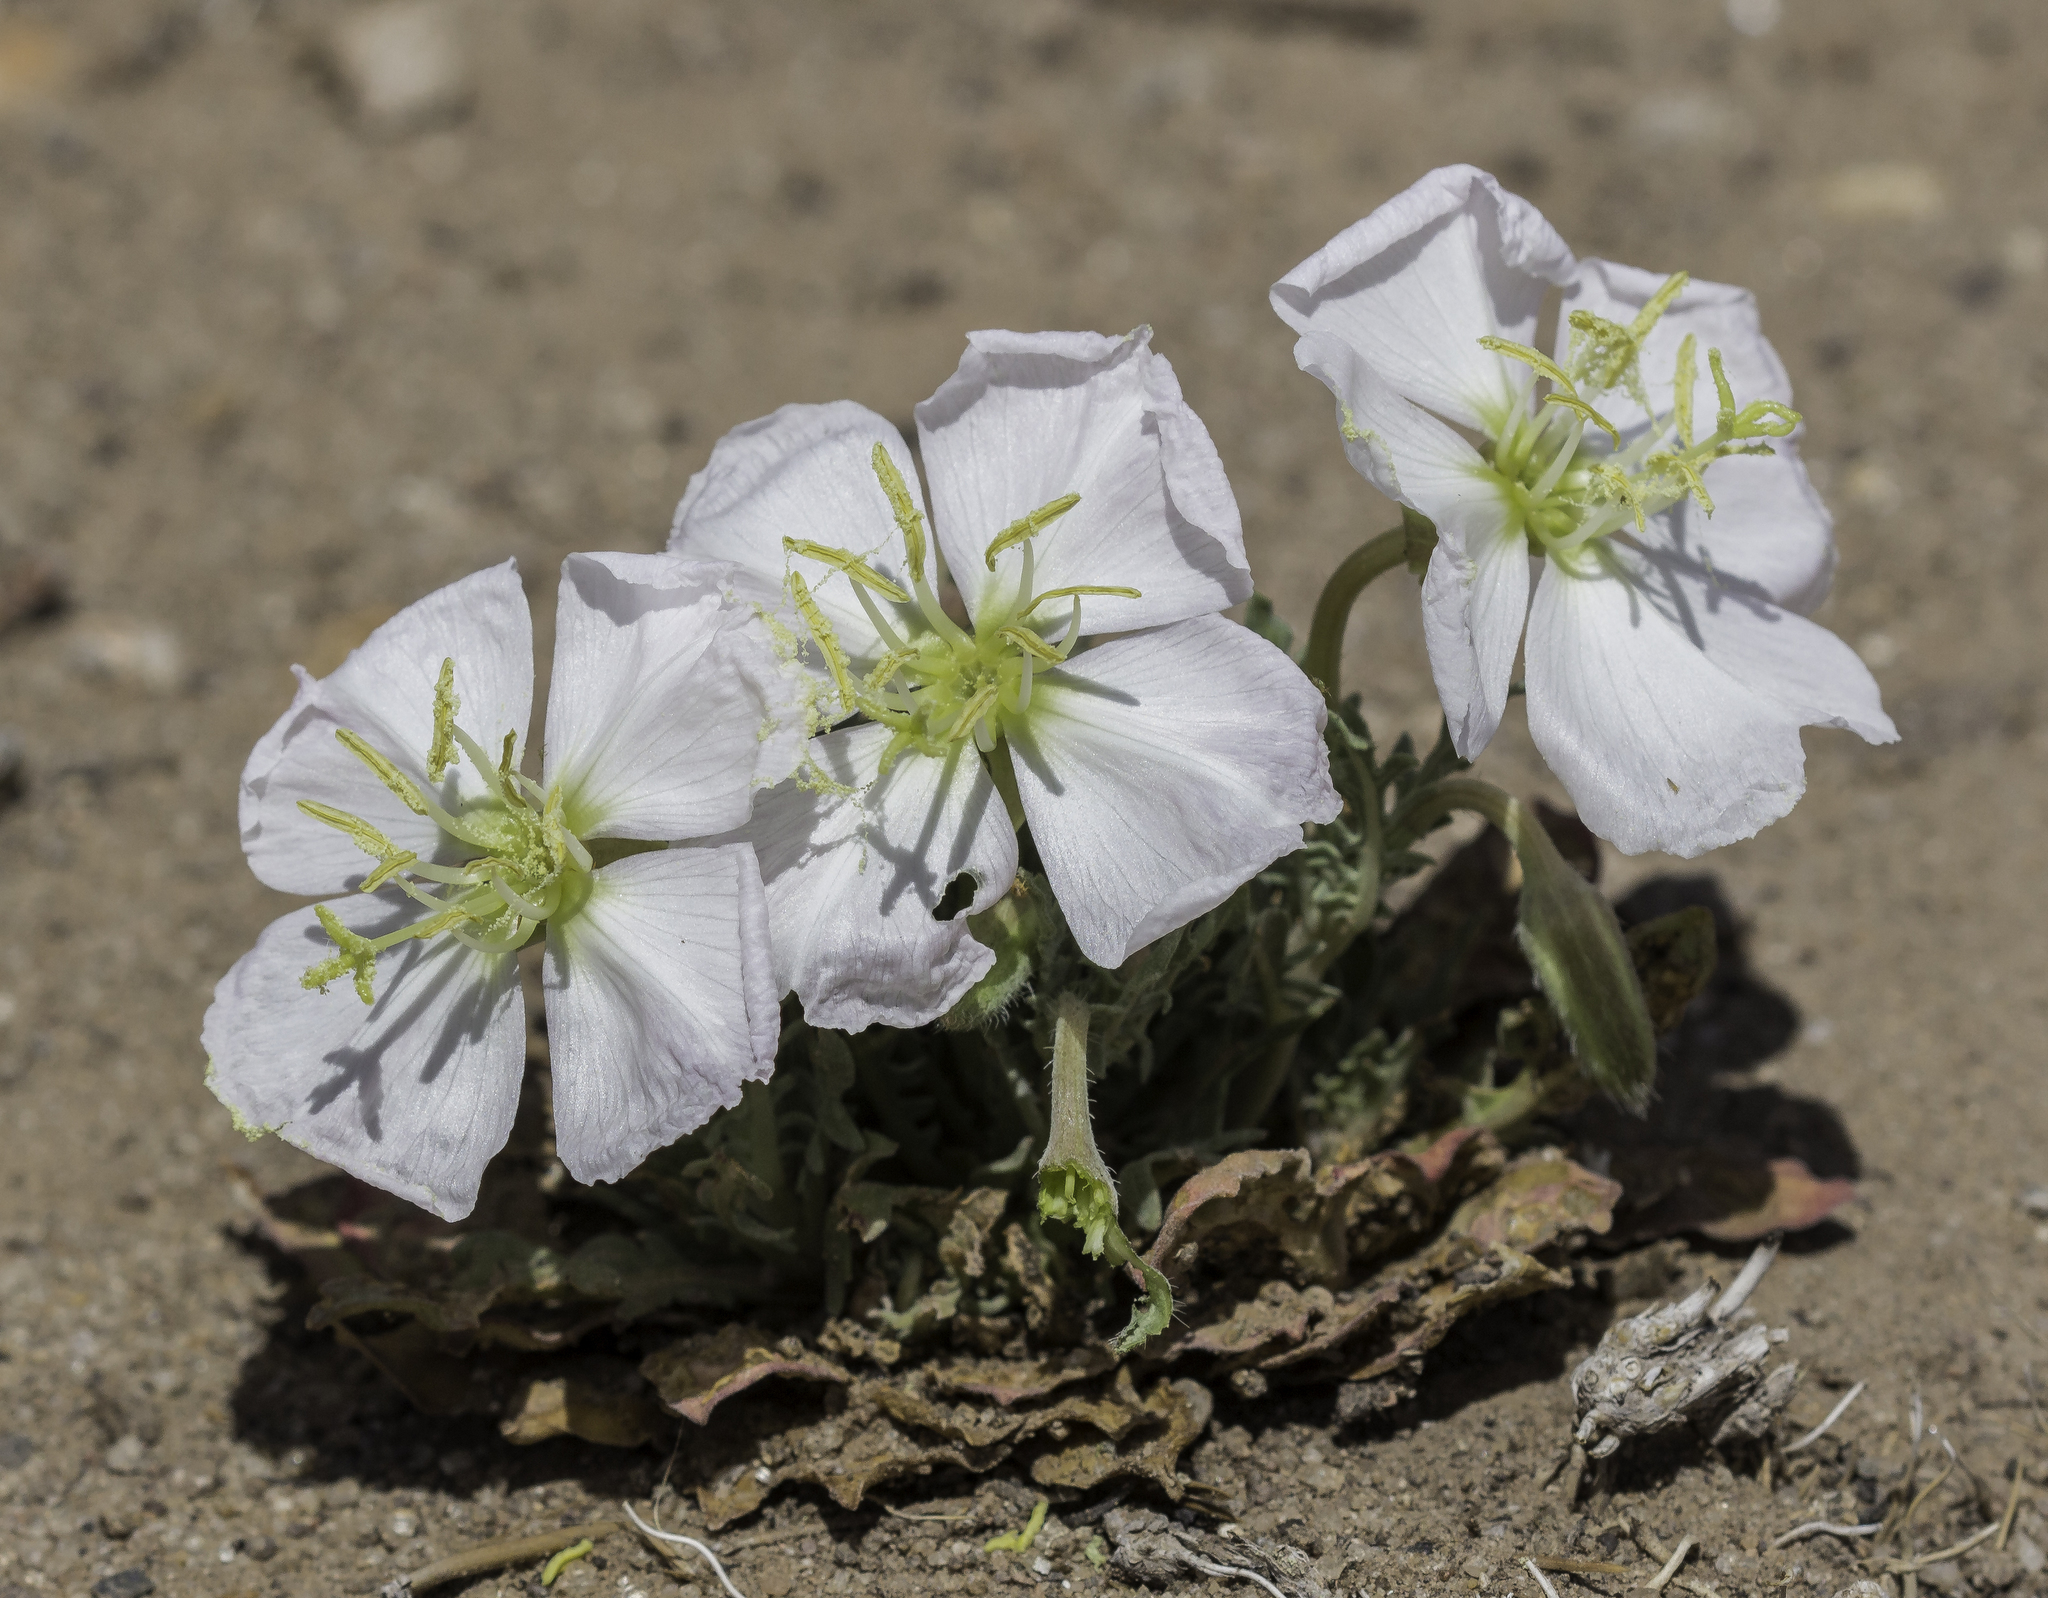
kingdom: Plantae
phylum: Tracheophyta
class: Magnoliopsida
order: Myrtales
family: Onagraceae
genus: Oenothera
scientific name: Oenothera albicaulis
